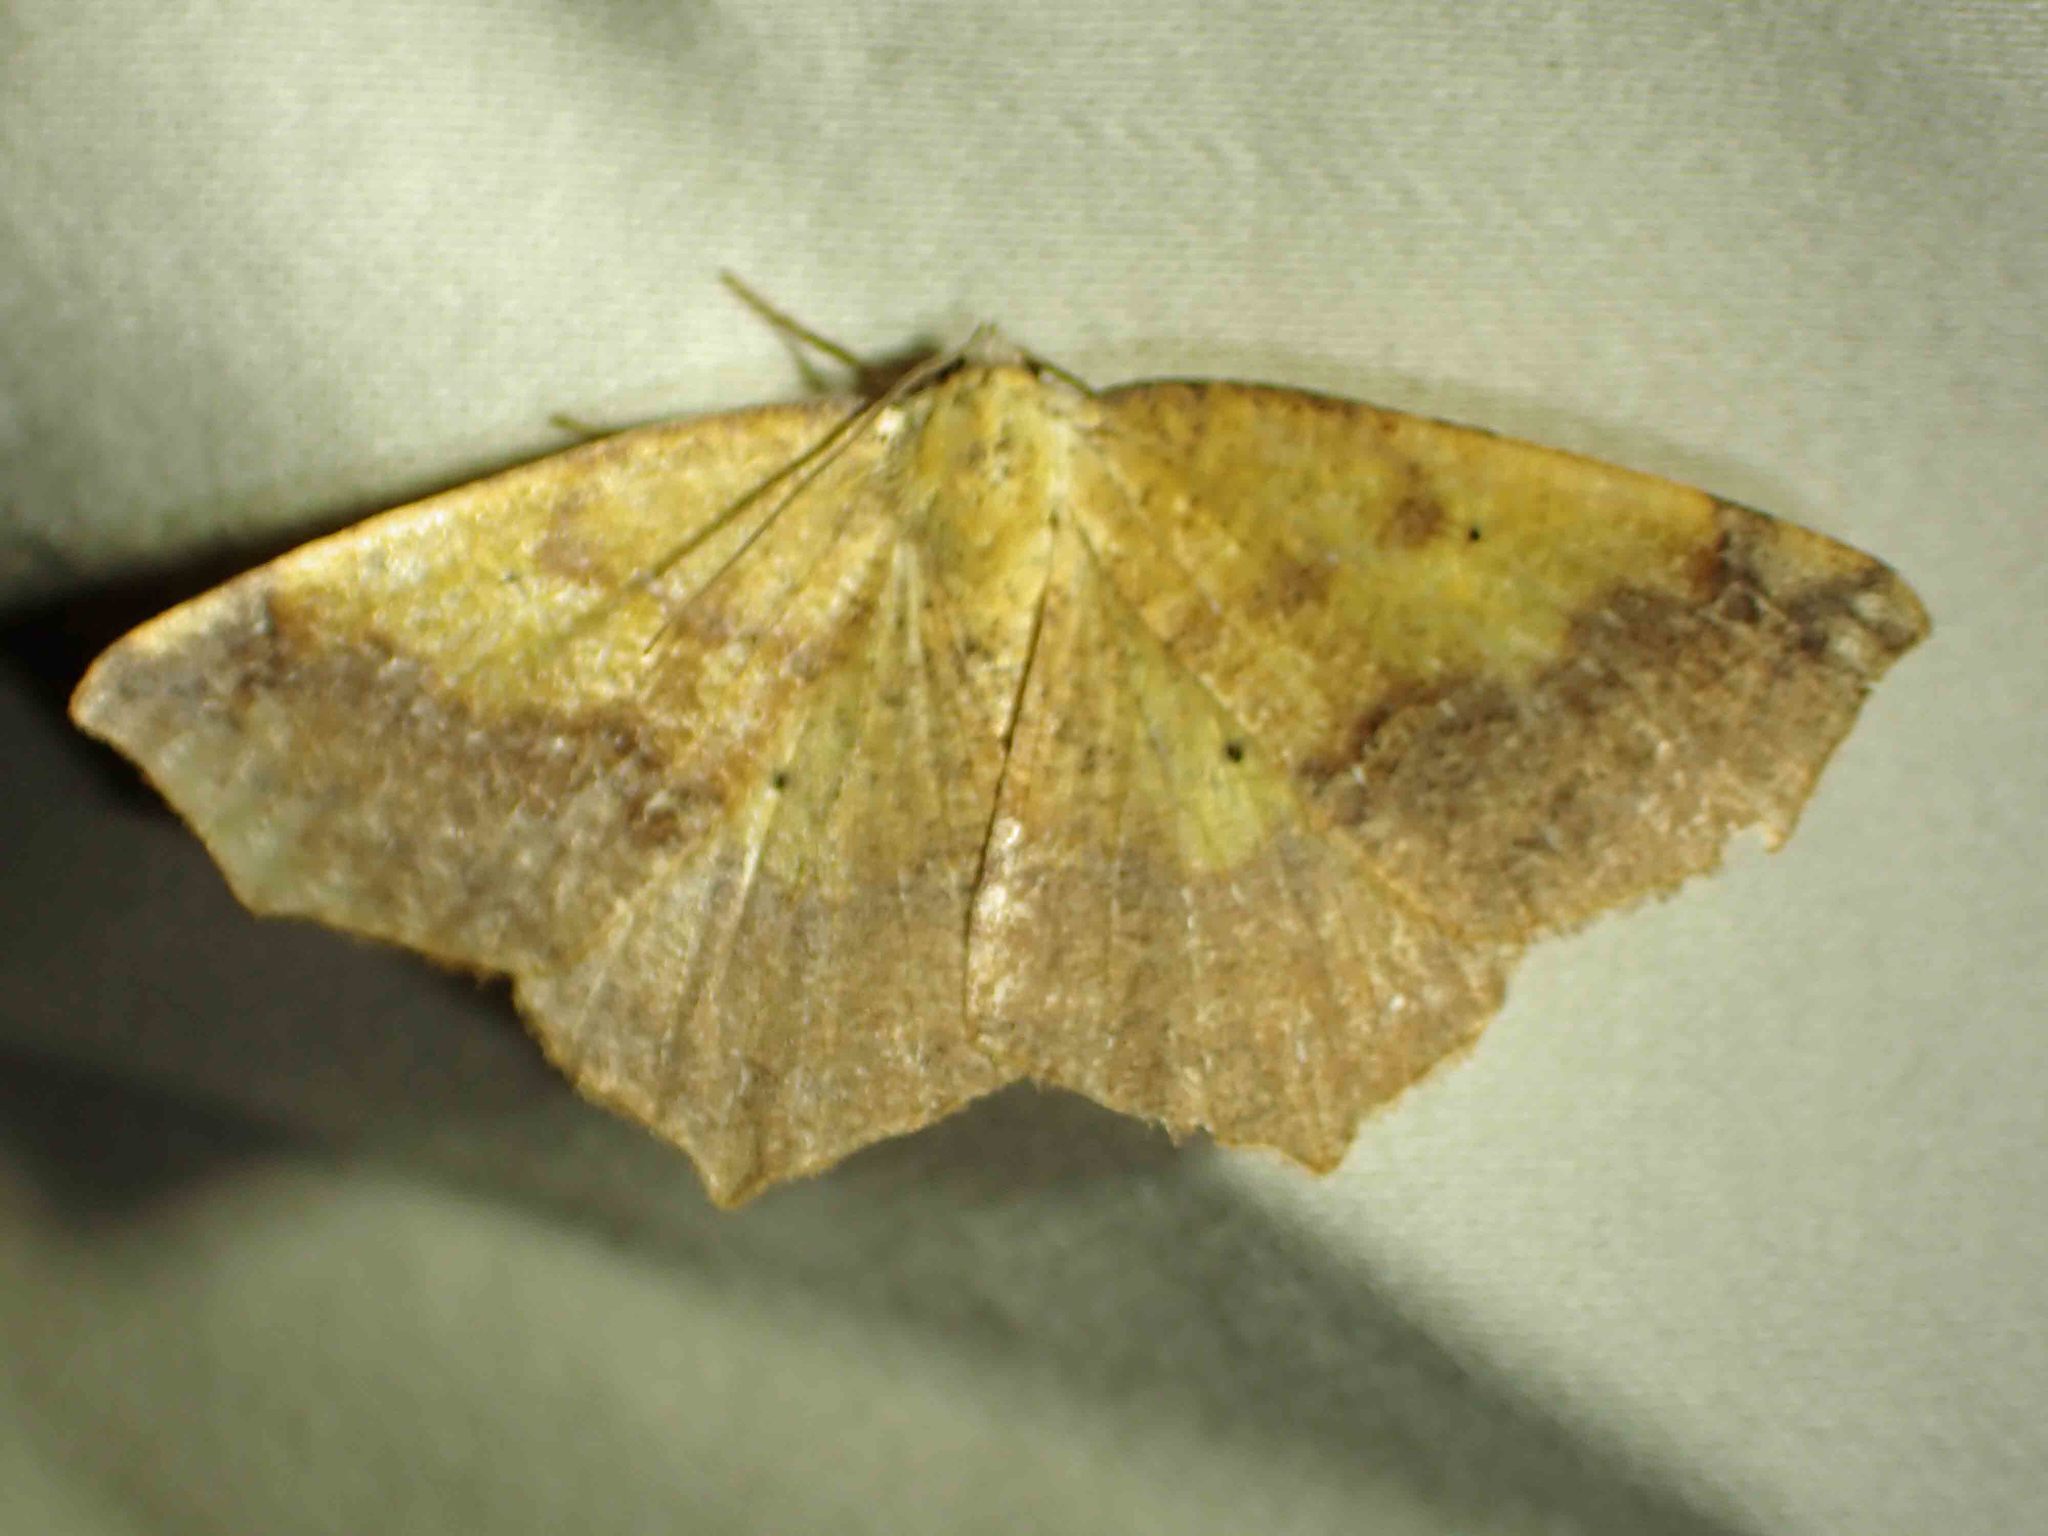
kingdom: Animalia
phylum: Arthropoda
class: Insecta
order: Lepidoptera
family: Geometridae
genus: Antepione
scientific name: Antepione thisoaria
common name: Variable antipione
